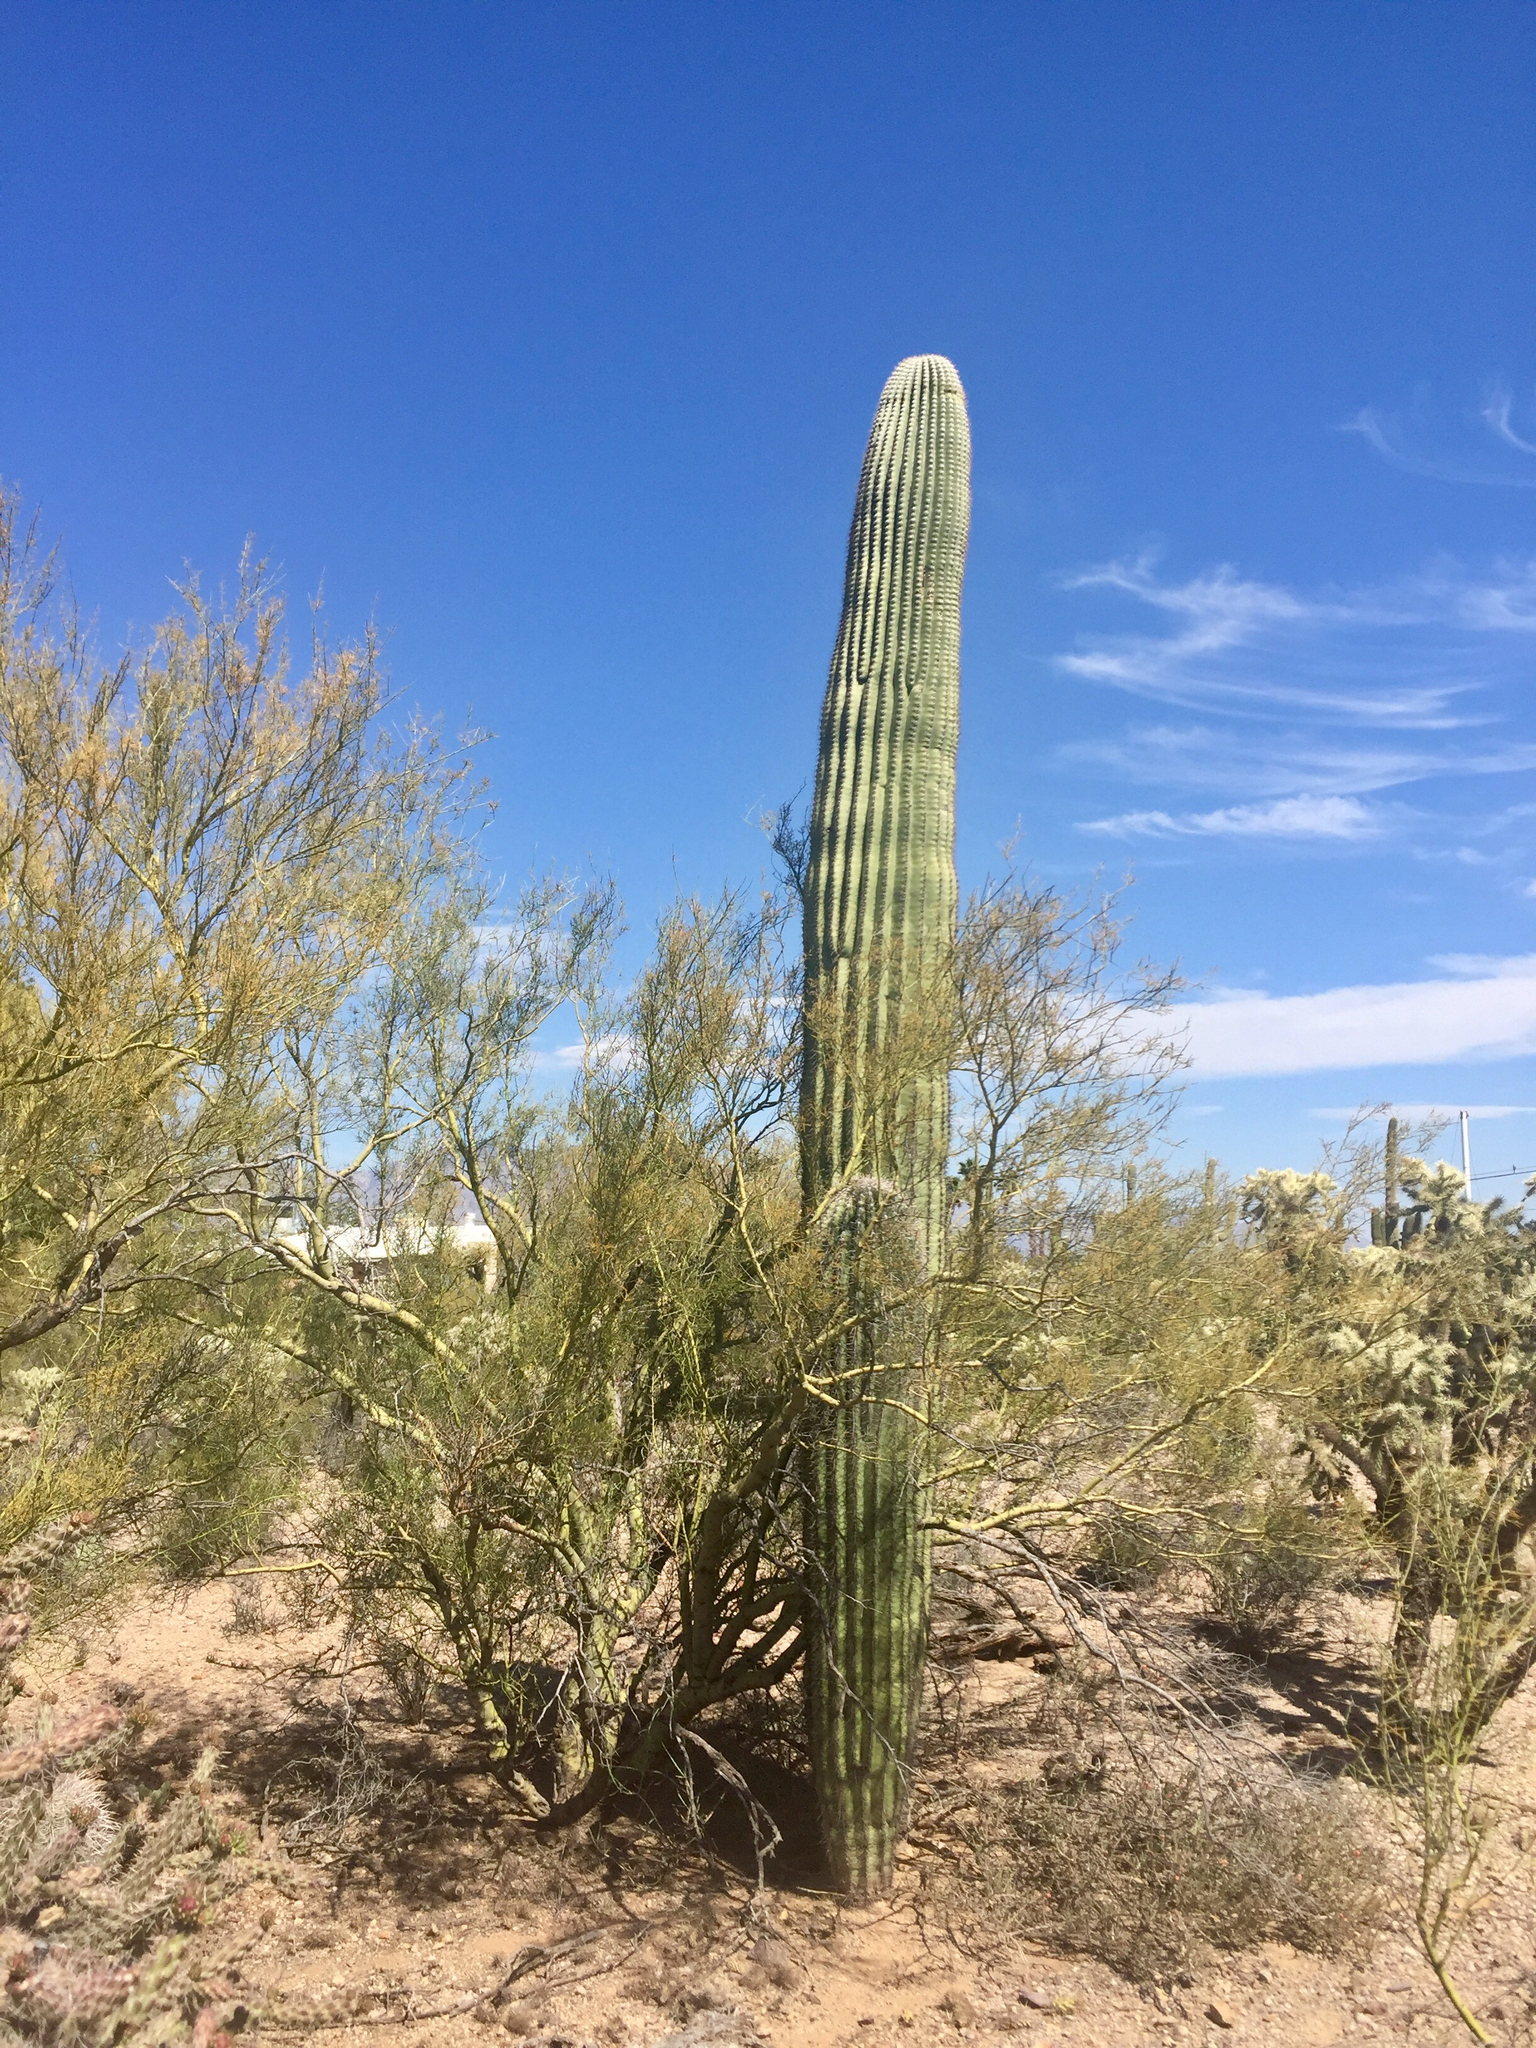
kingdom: Plantae
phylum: Tracheophyta
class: Magnoliopsida
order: Fabales
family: Fabaceae
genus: Parkinsonia
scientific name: Parkinsonia microphylla
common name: Yellow paloverde
